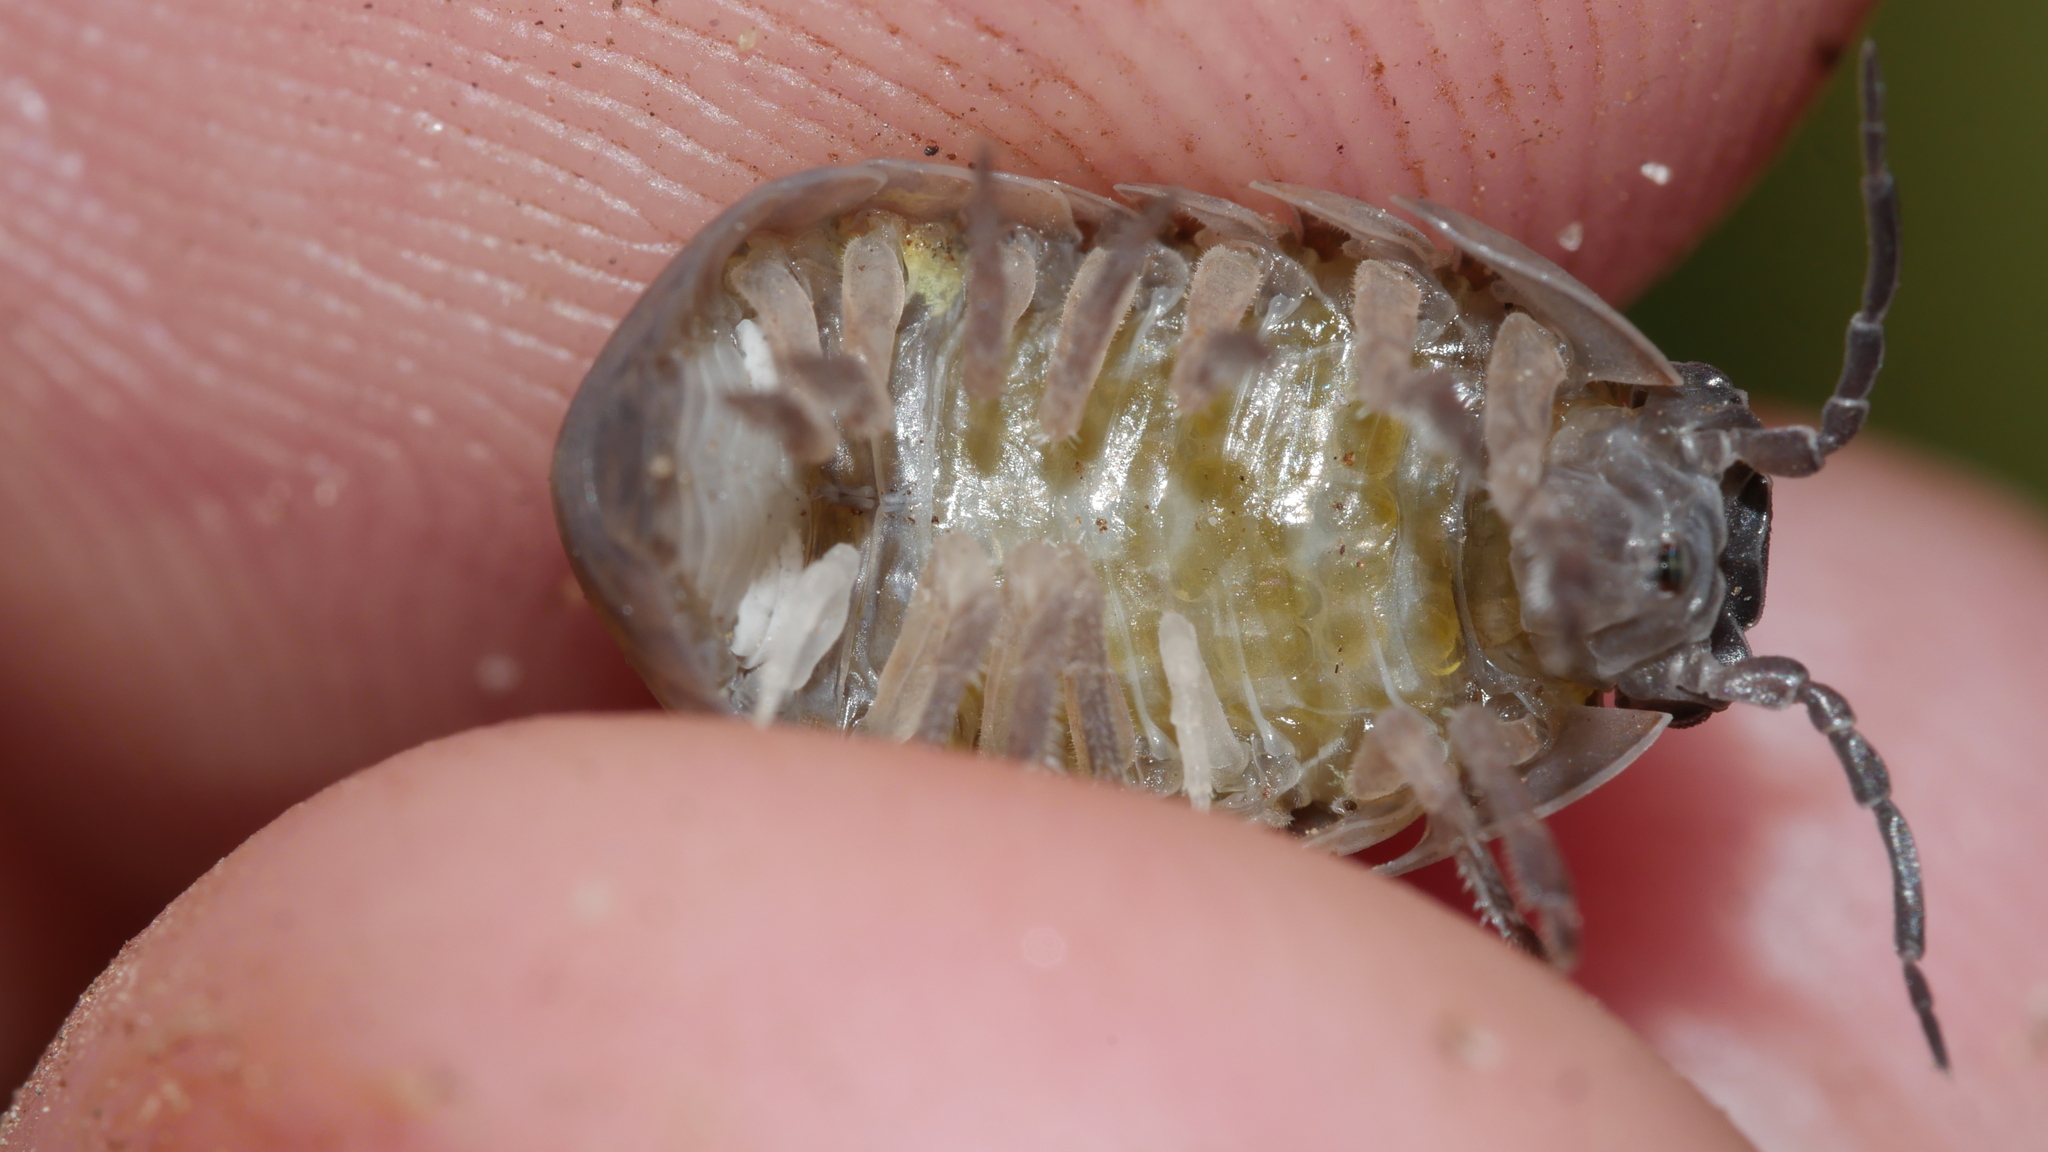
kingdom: Animalia
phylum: Arthropoda
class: Malacostraca
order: Isopoda
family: Armadillidiidae
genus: Armadillidium
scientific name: Armadillidium vulgare
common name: Common pill woodlouse
